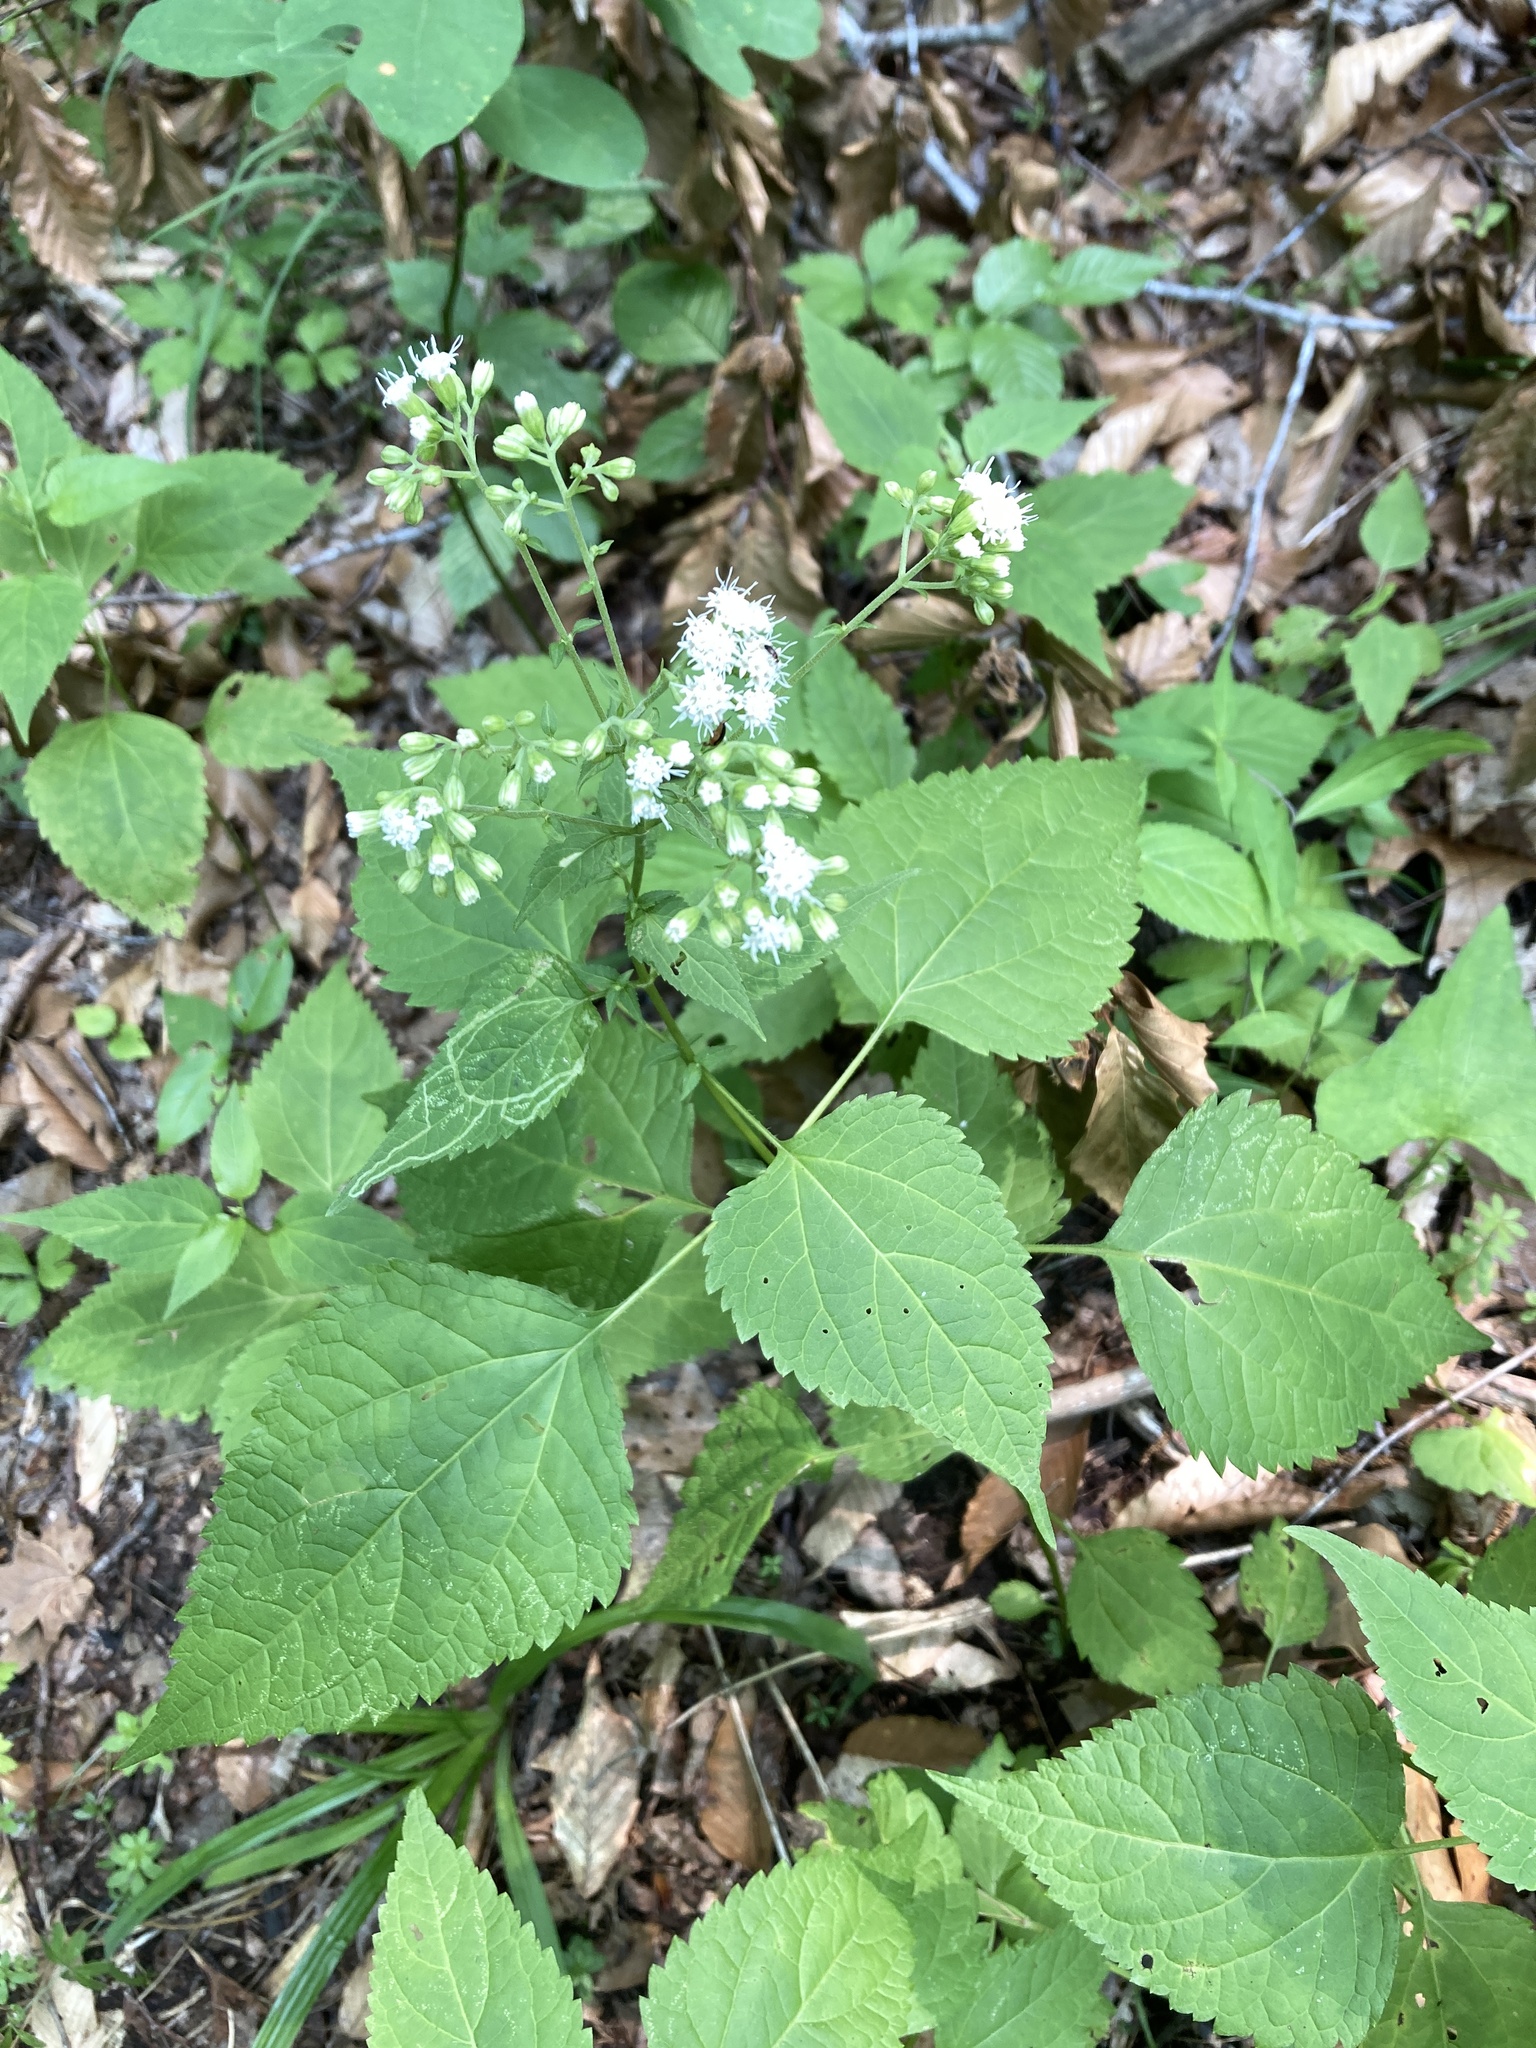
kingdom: Plantae
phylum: Tracheophyta
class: Magnoliopsida
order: Asterales
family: Asteraceae
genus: Ageratina
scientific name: Ageratina altissima
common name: White snakeroot
